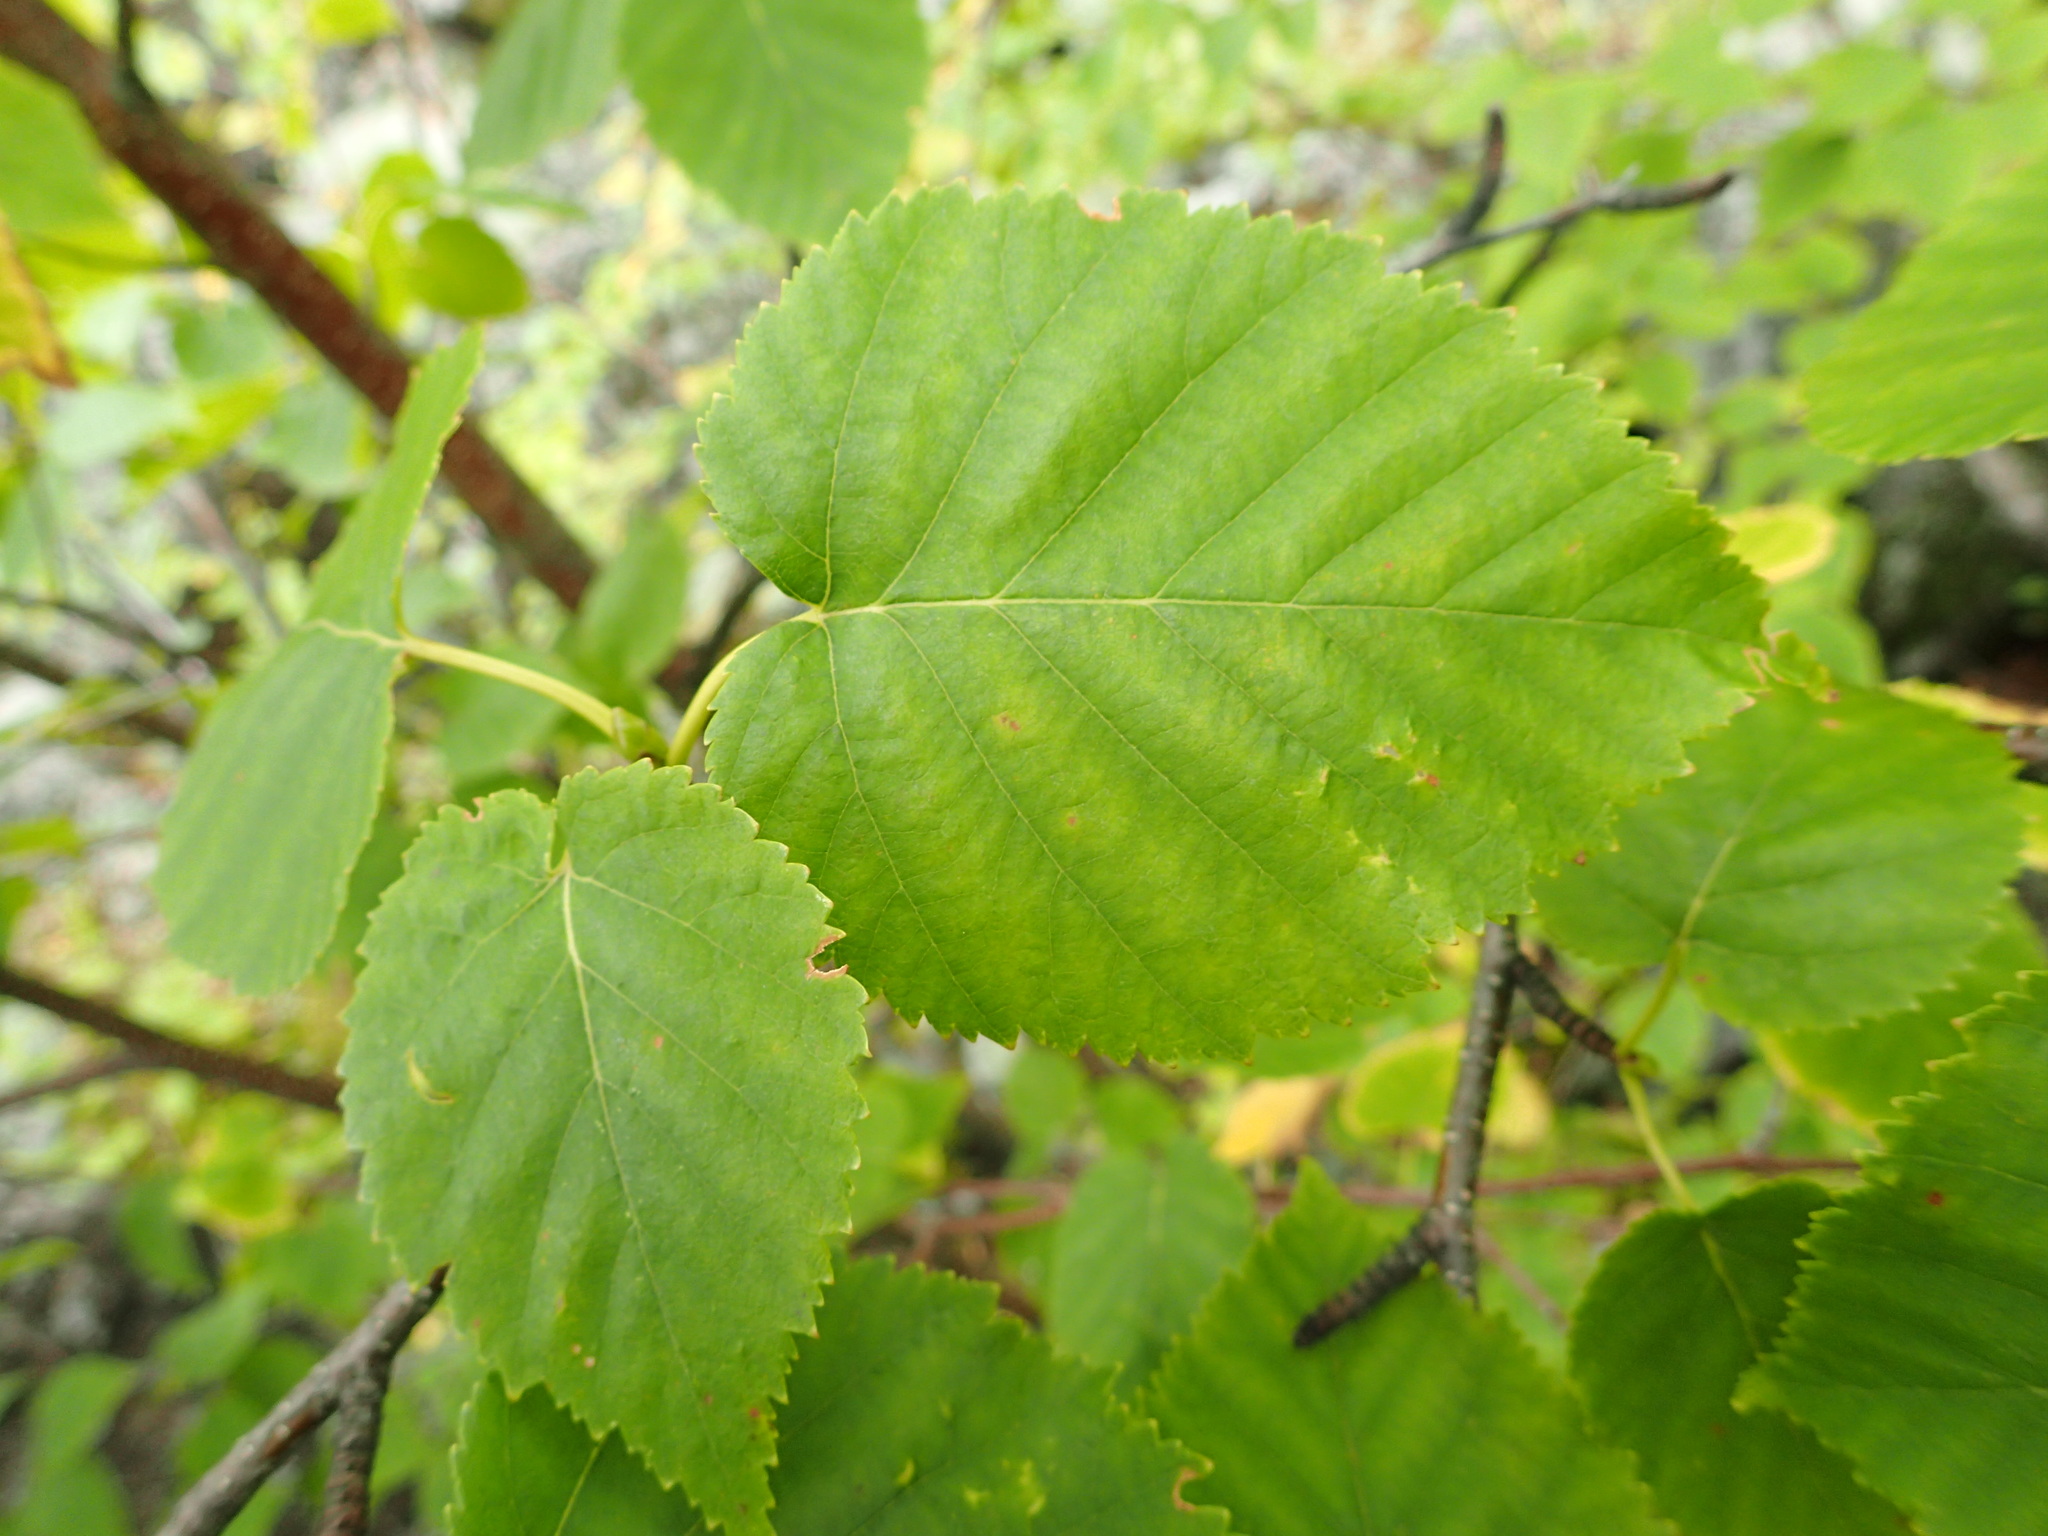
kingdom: Plantae
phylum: Tracheophyta
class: Magnoliopsida
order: Fagales
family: Betulaceae
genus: Betula
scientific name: Betula cordifolia
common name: Mountain white birch
